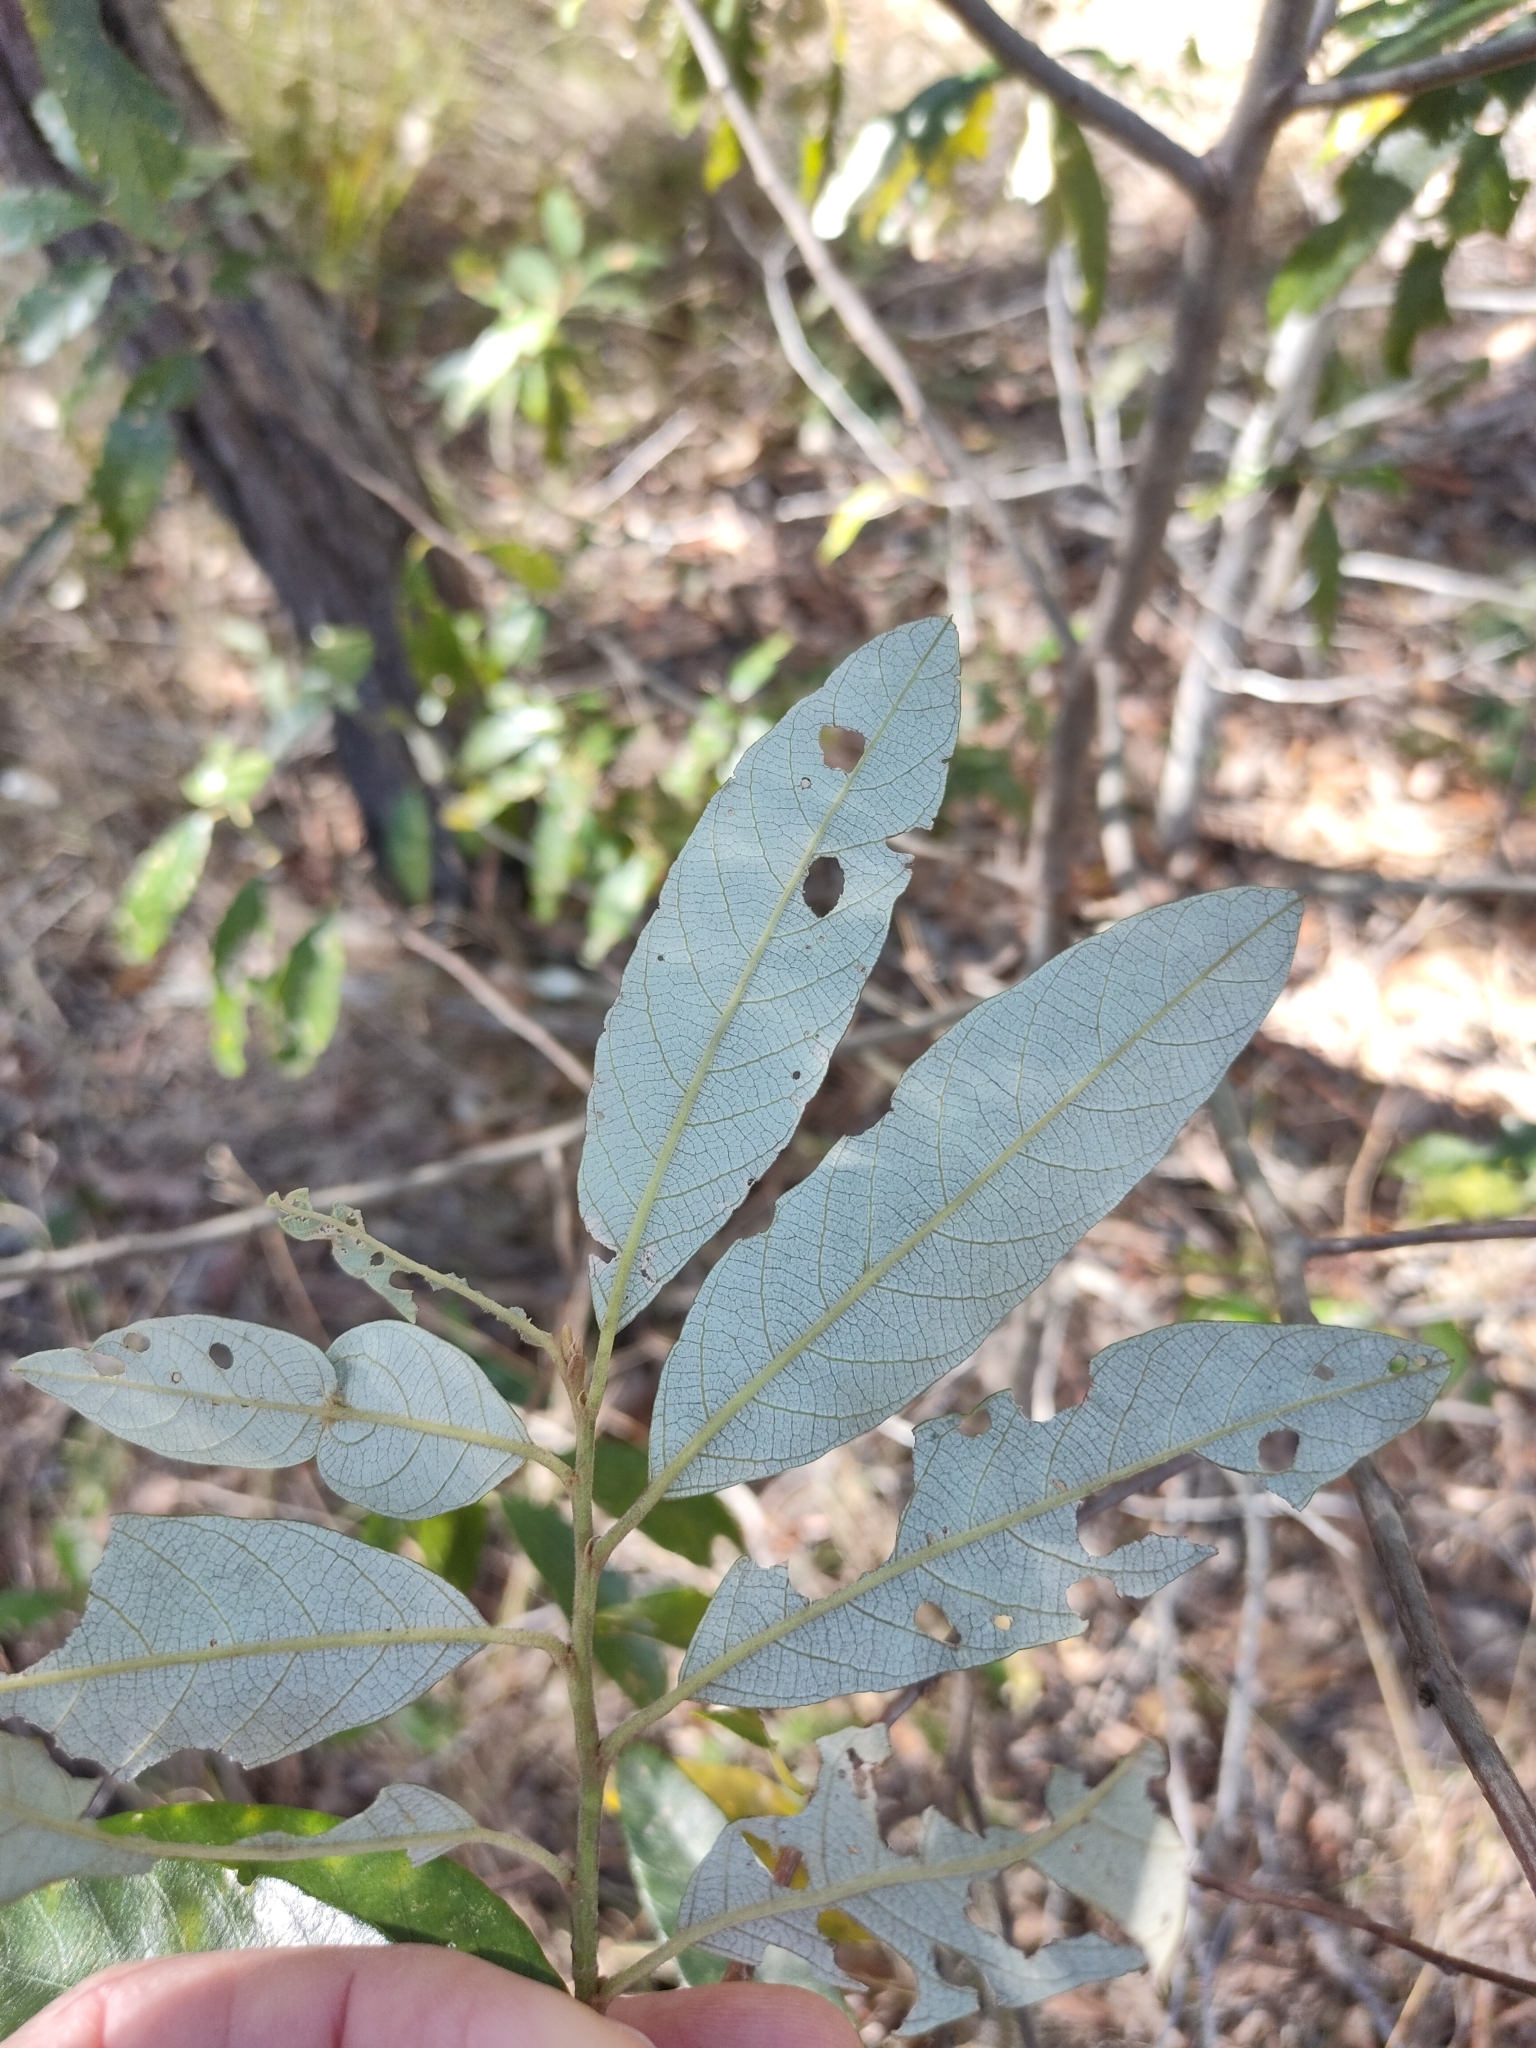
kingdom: Plantae
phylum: Tracheophyta
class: Magnoliopsida
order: Rosales
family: Rhamnaceae
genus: Alphitonia
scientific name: Alphitonia excelsa
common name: Red ash
